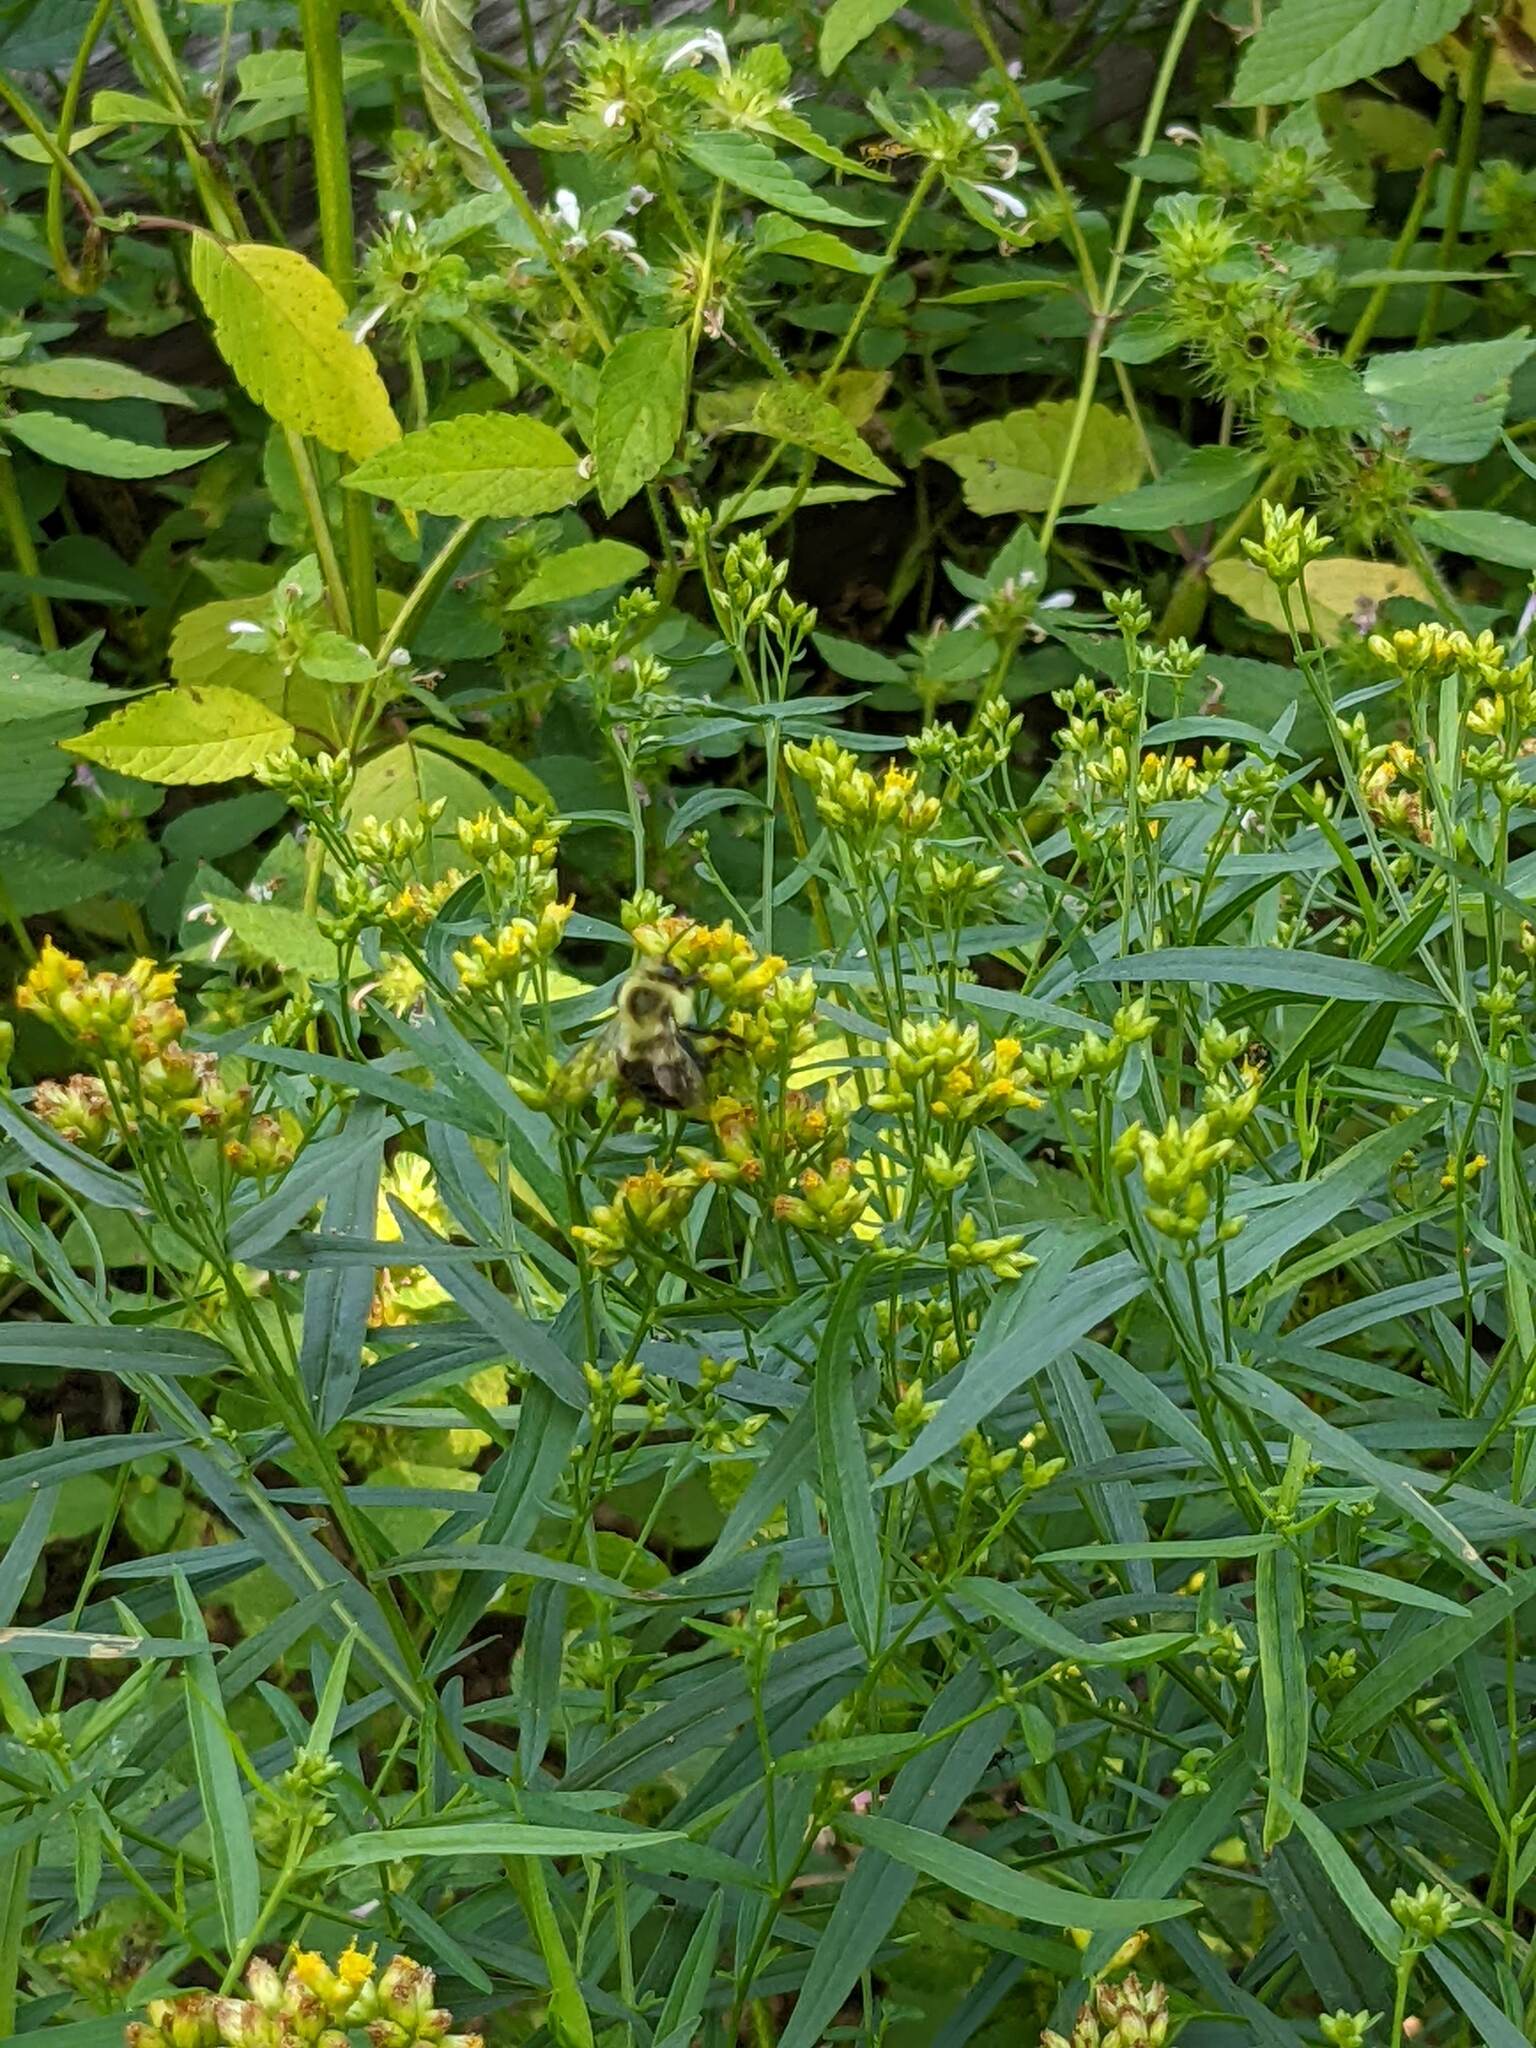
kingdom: Animalia
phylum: Arthropoda
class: Insecta
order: Hymenoptera
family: Apidae
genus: Bombus
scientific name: Bombus impatiens
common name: Common eastern bumble bee
